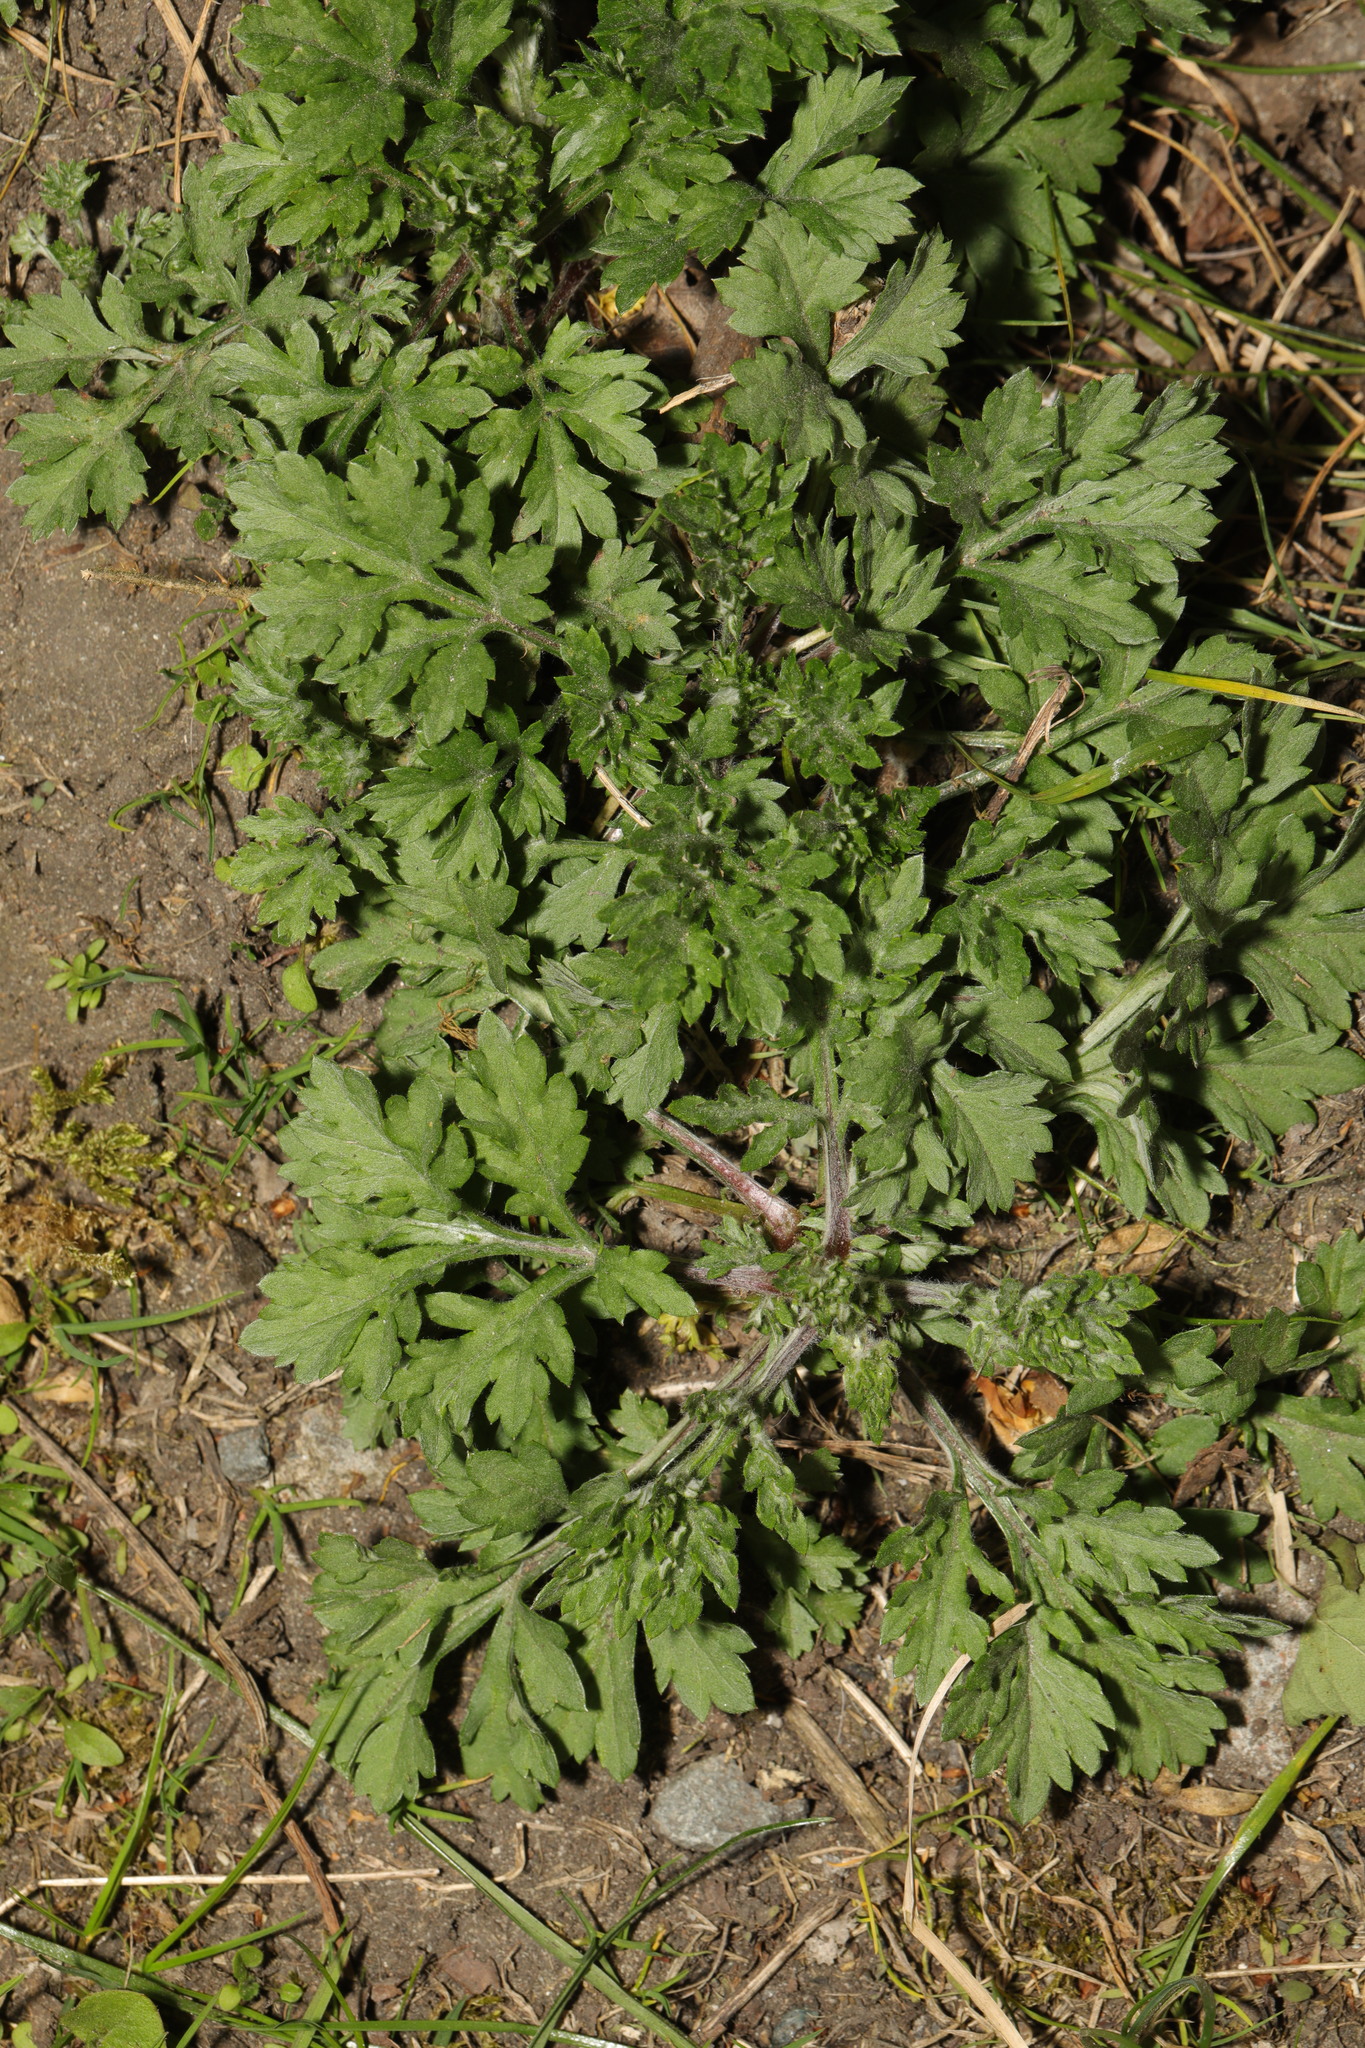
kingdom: Plantae
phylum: Tracheophyta
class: Magnoliopsida
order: Asterales
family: Asteraceae
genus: Artemisia
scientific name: Artemisia vulgaris
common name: Mugwort
